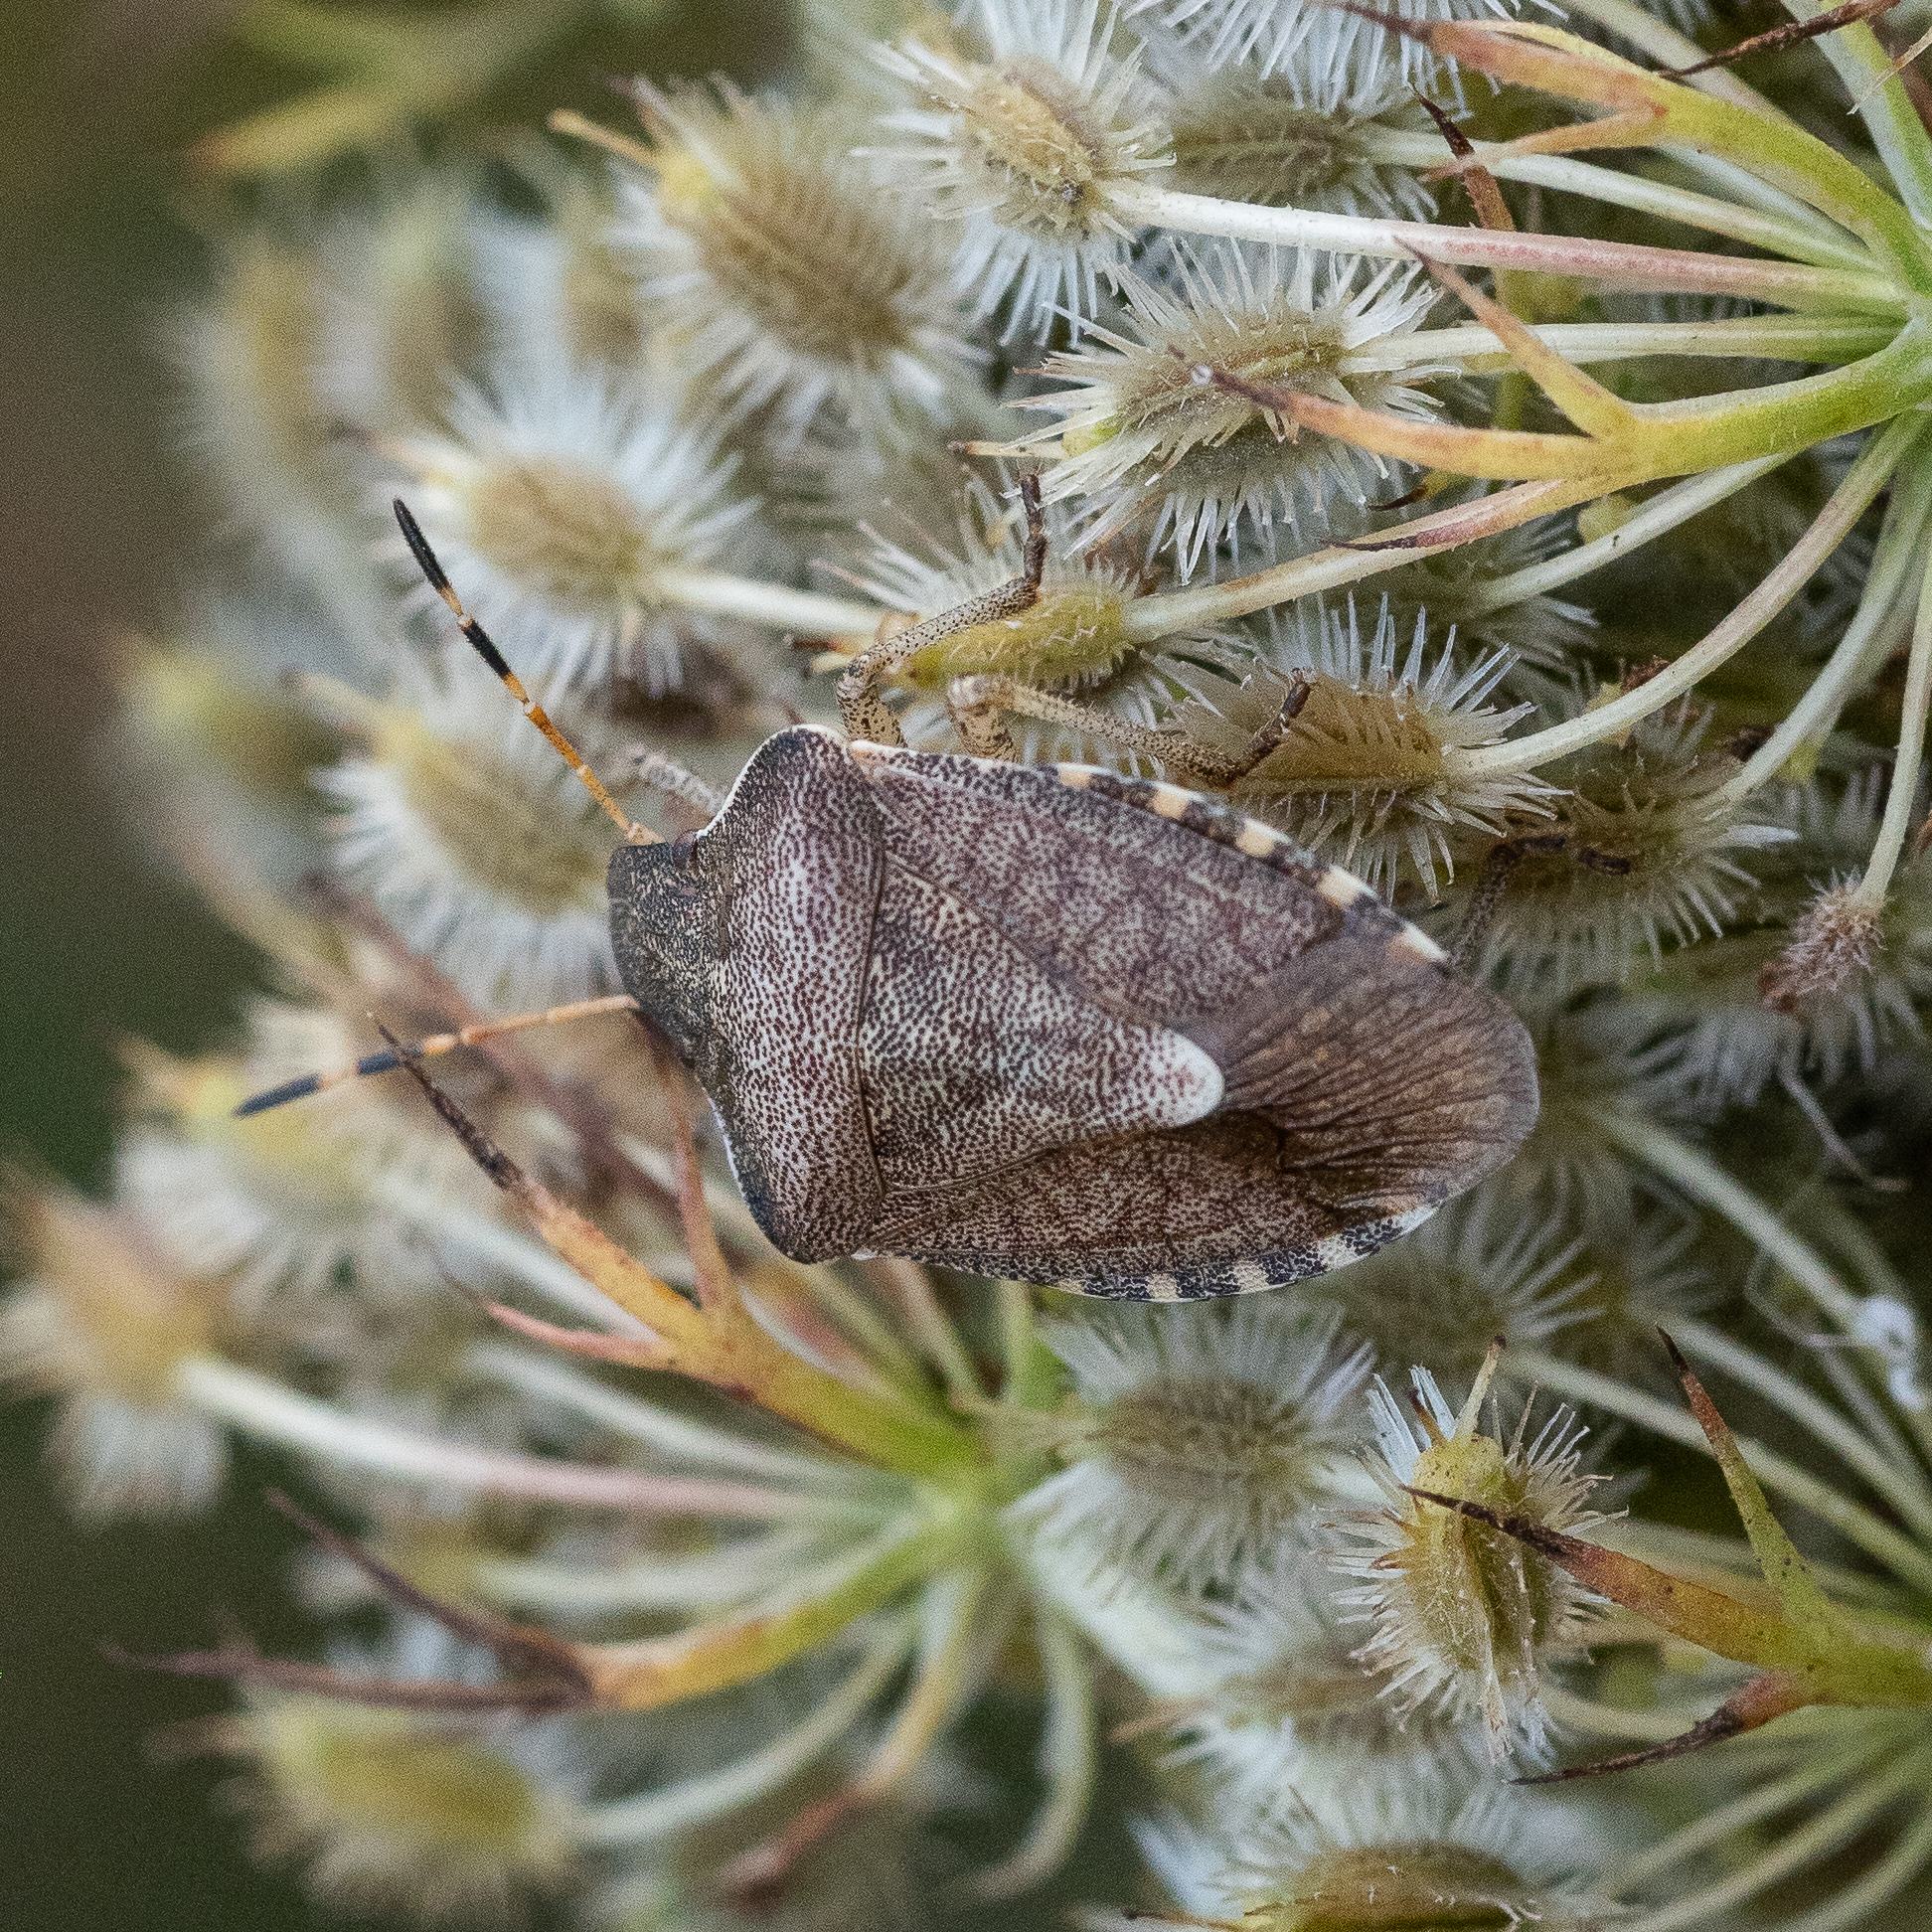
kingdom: Animalia
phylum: Arthropoda
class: Insecta
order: Hemiptera
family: Pentatomidae
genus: Holcostethus
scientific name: Holcostethus strictus
